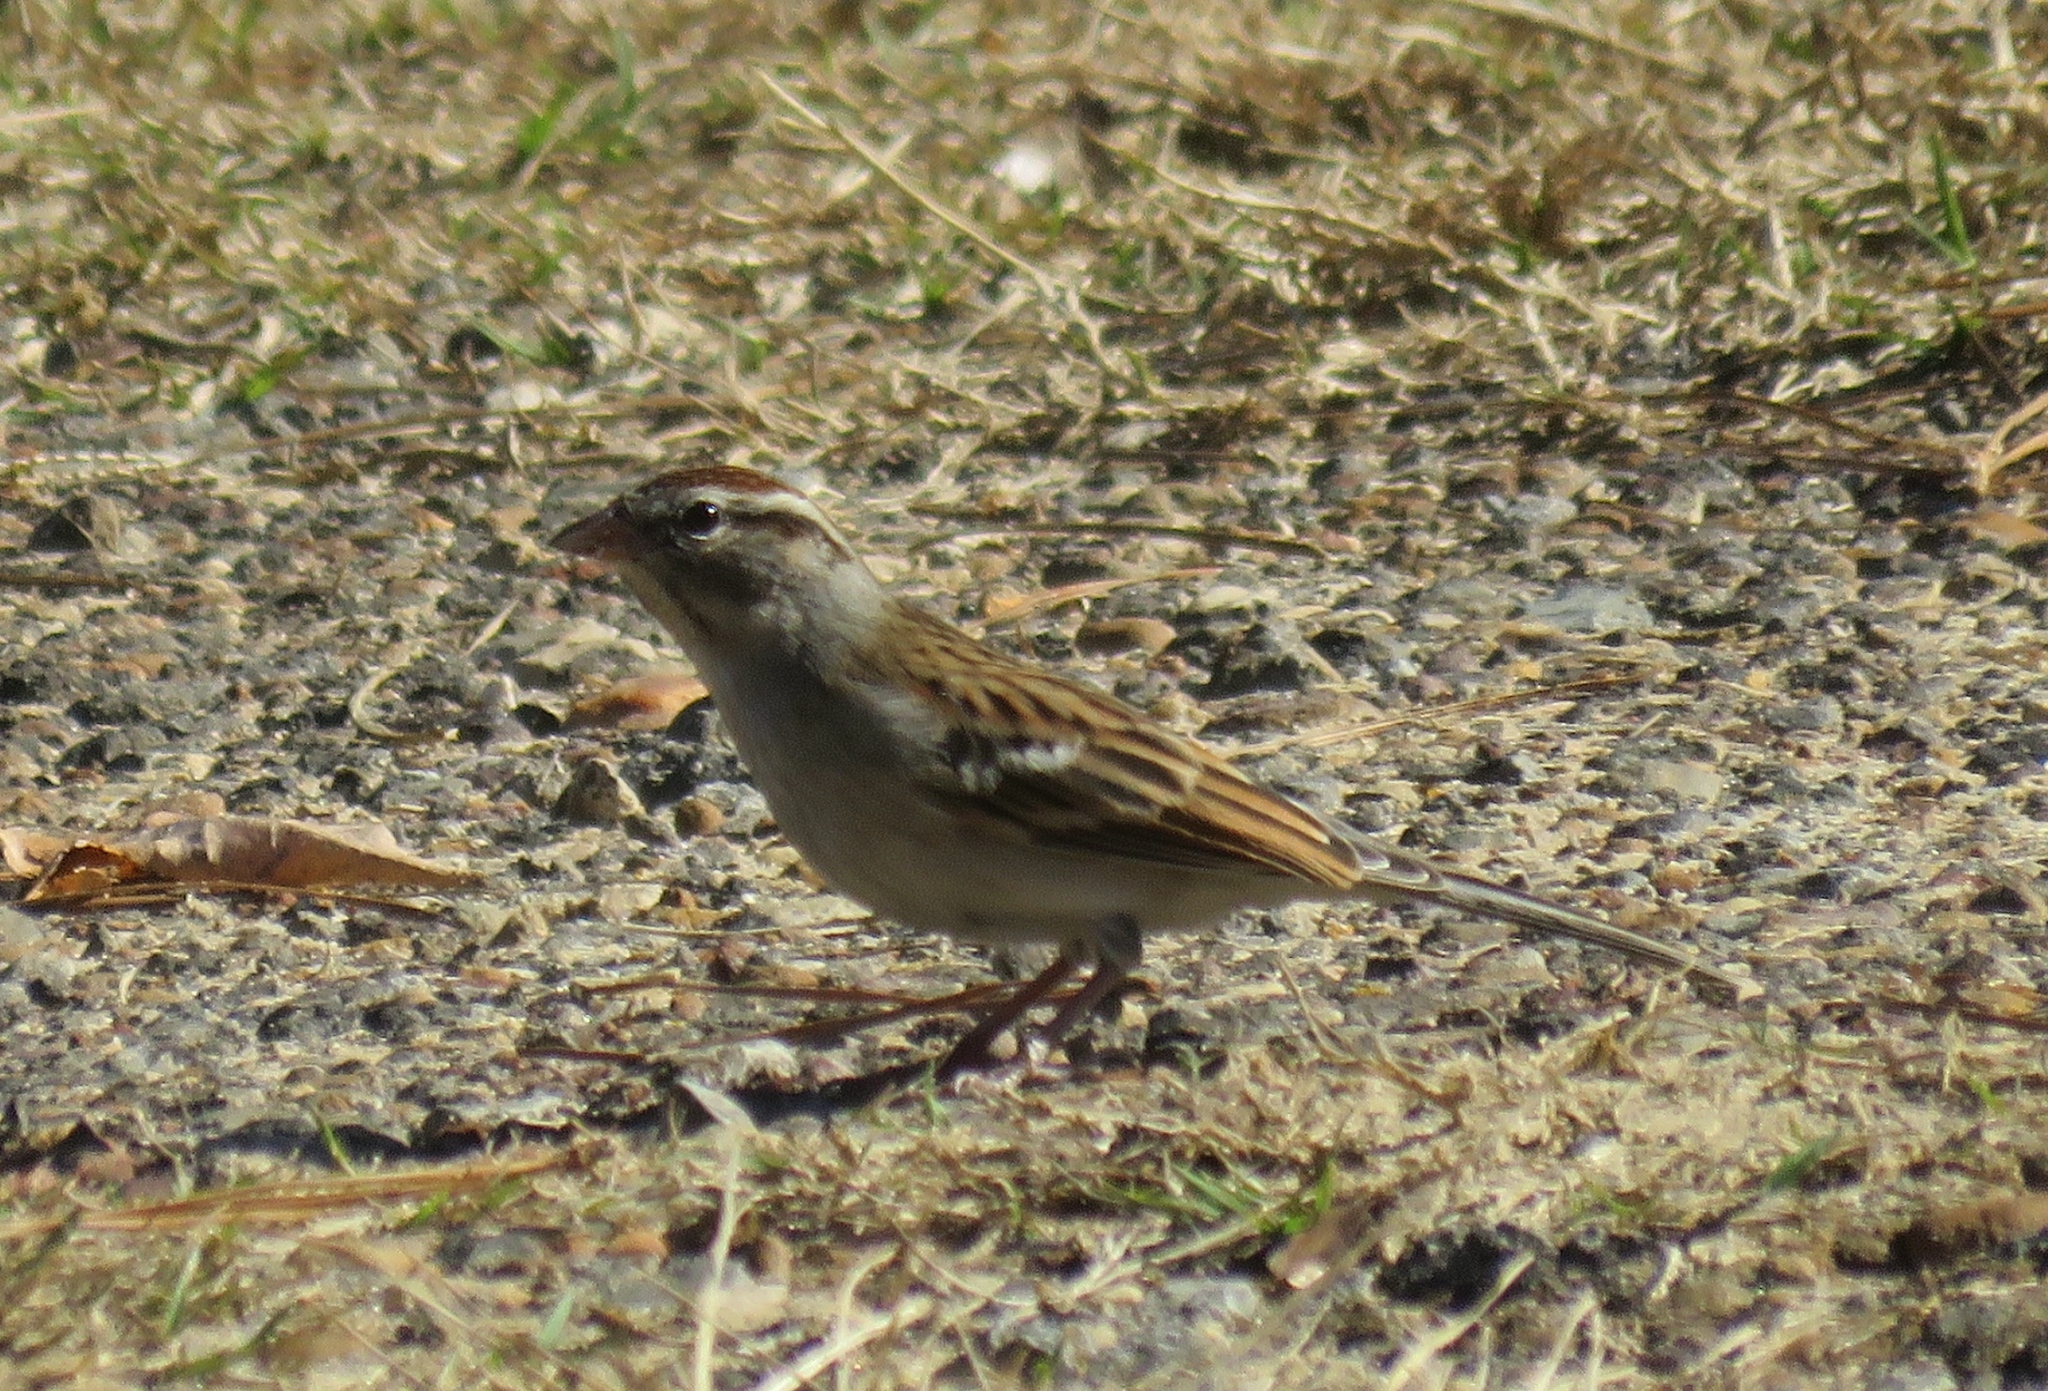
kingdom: Animalia
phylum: Chordata
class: Aves
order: Passeriformes
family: Passerellidae
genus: Spizella
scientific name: Spizella passerina
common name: Chipping sparrow
